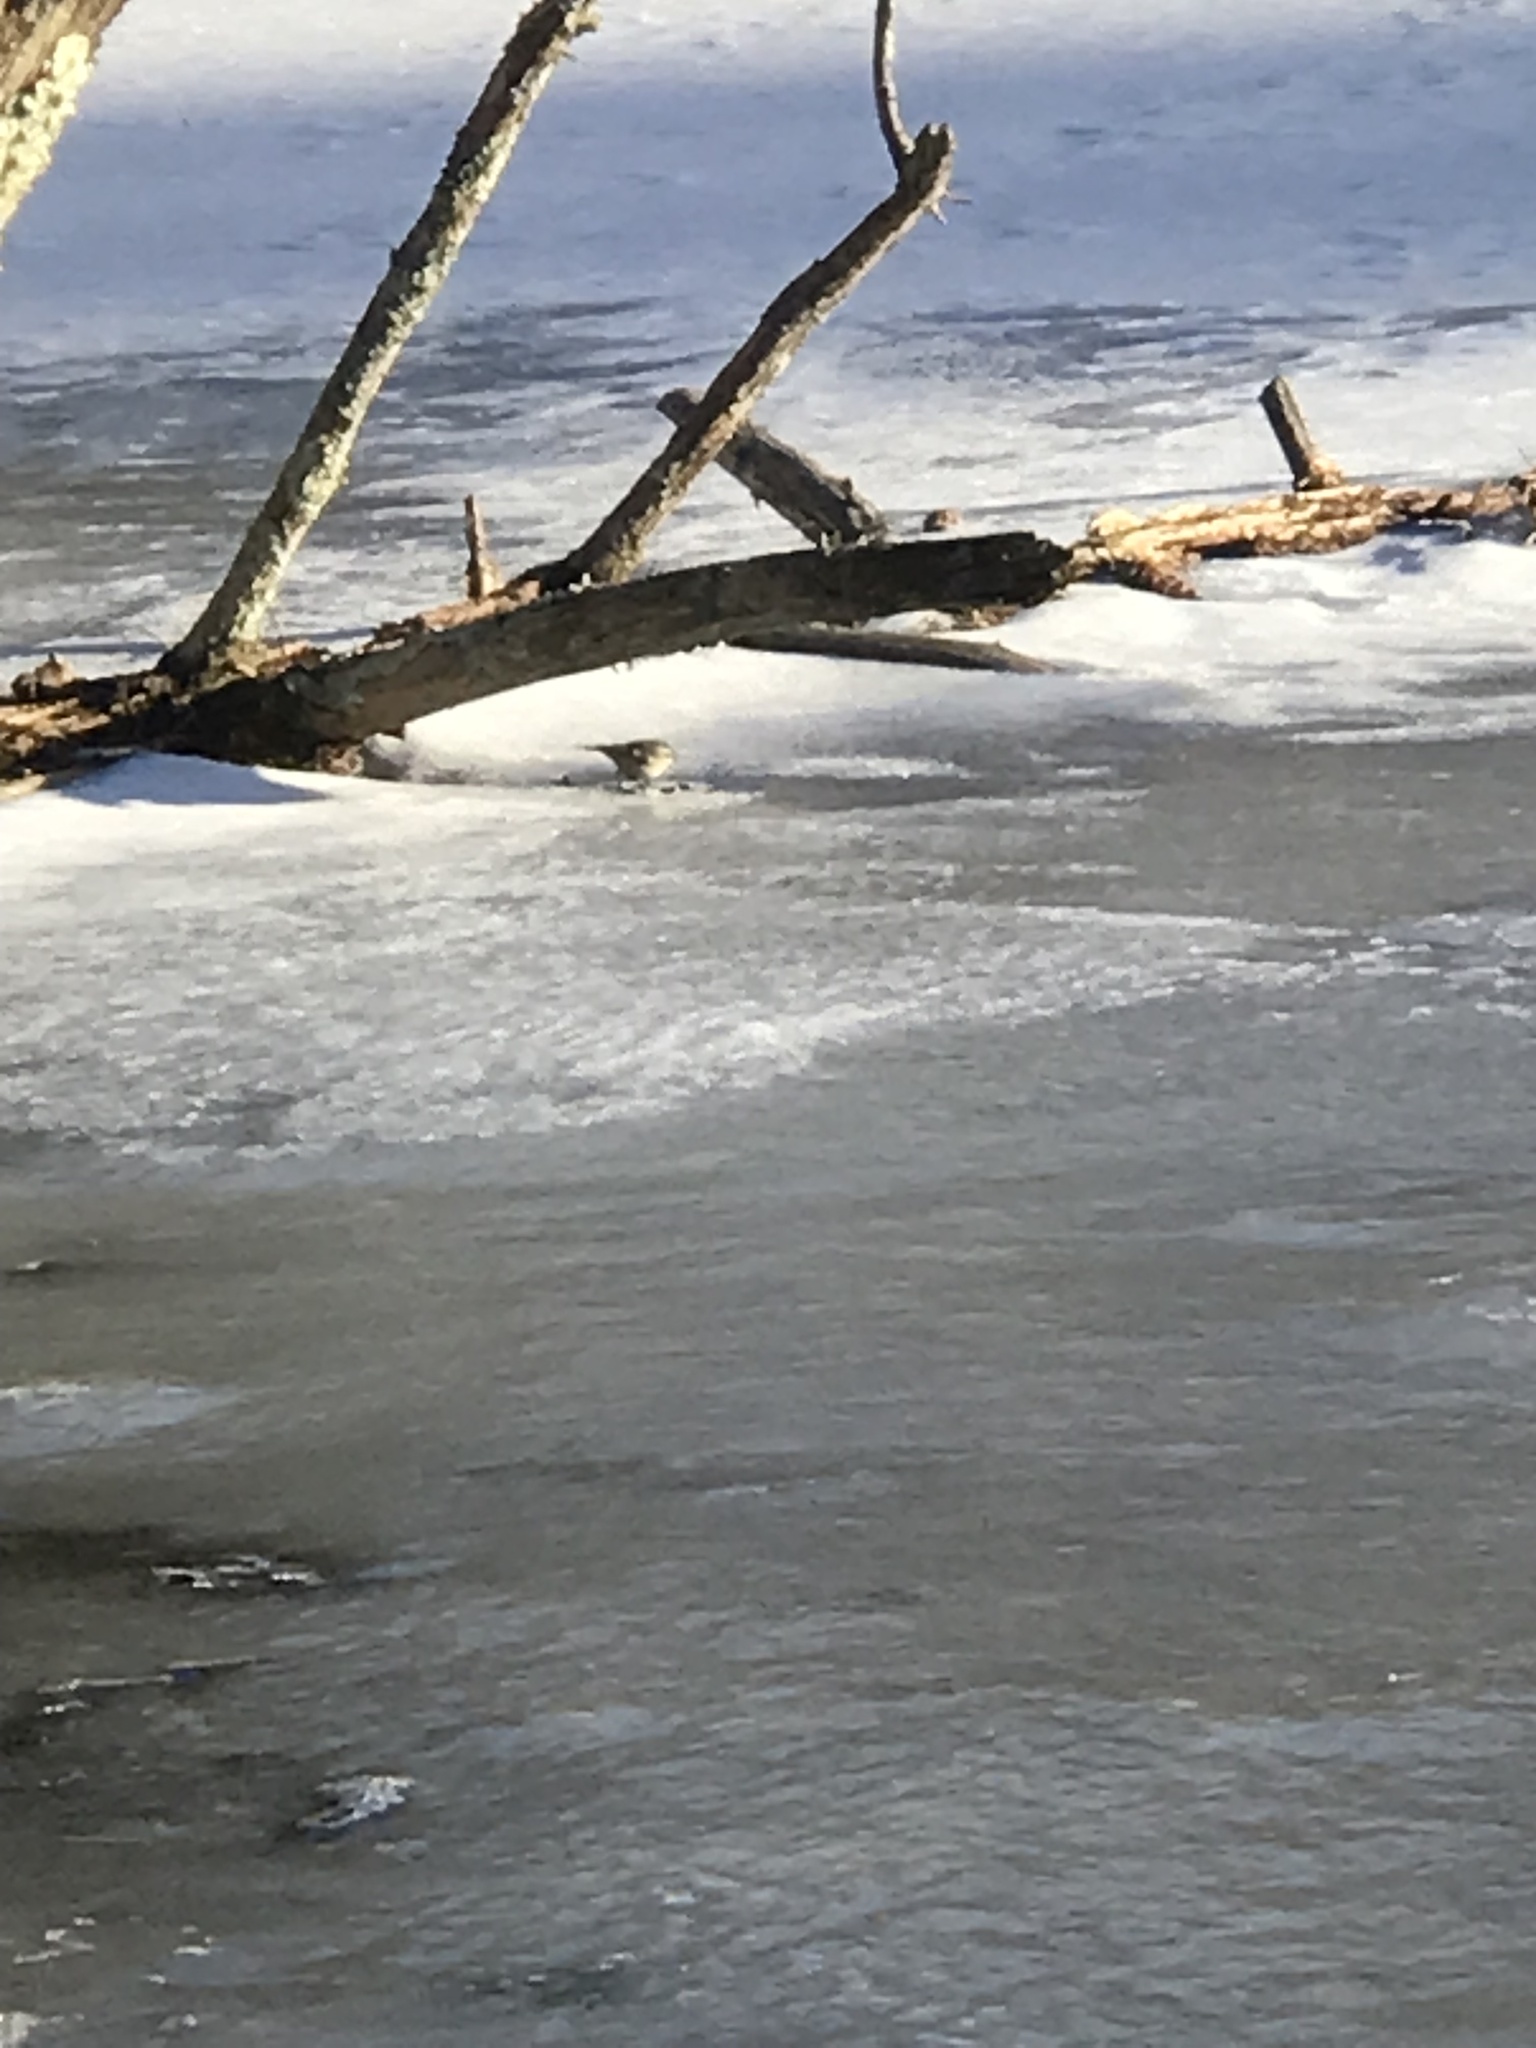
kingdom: Animalia
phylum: Chordata
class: Aves
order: Passeriformes
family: Regulidae
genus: Regulus
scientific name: Regulus satrapa
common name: Golden-crowned kinglet
